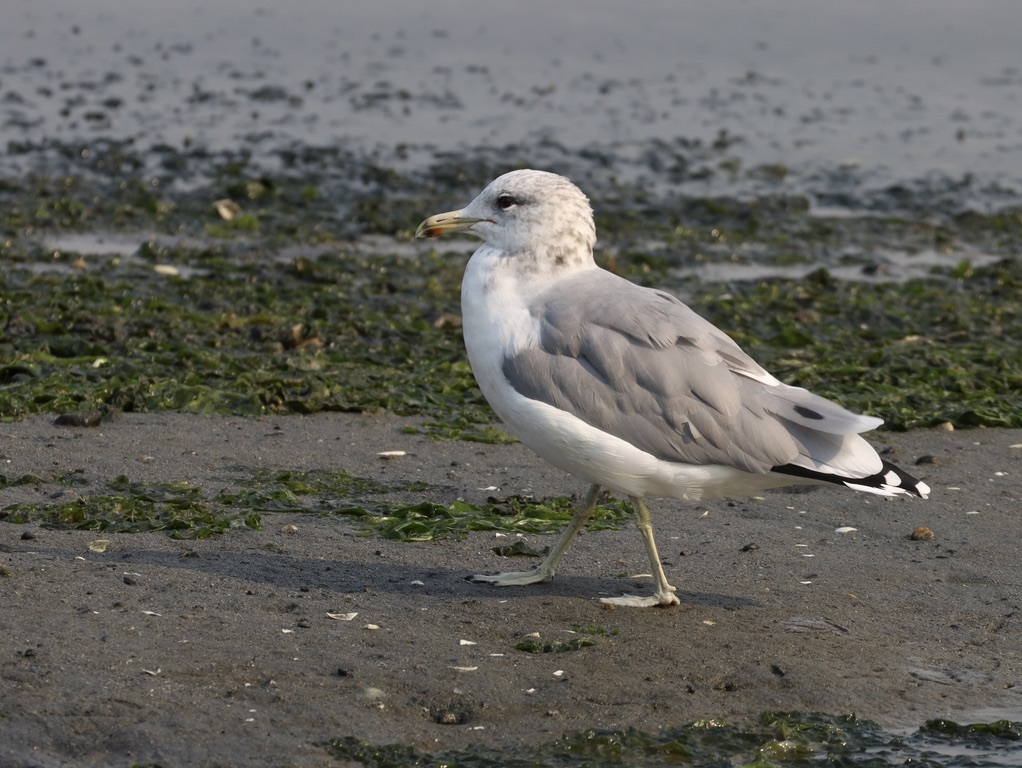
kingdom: Animalia
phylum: Chordata
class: Aves
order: Charadriiformes
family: Laridae
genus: Larus
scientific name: Larus californicus
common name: California gull
